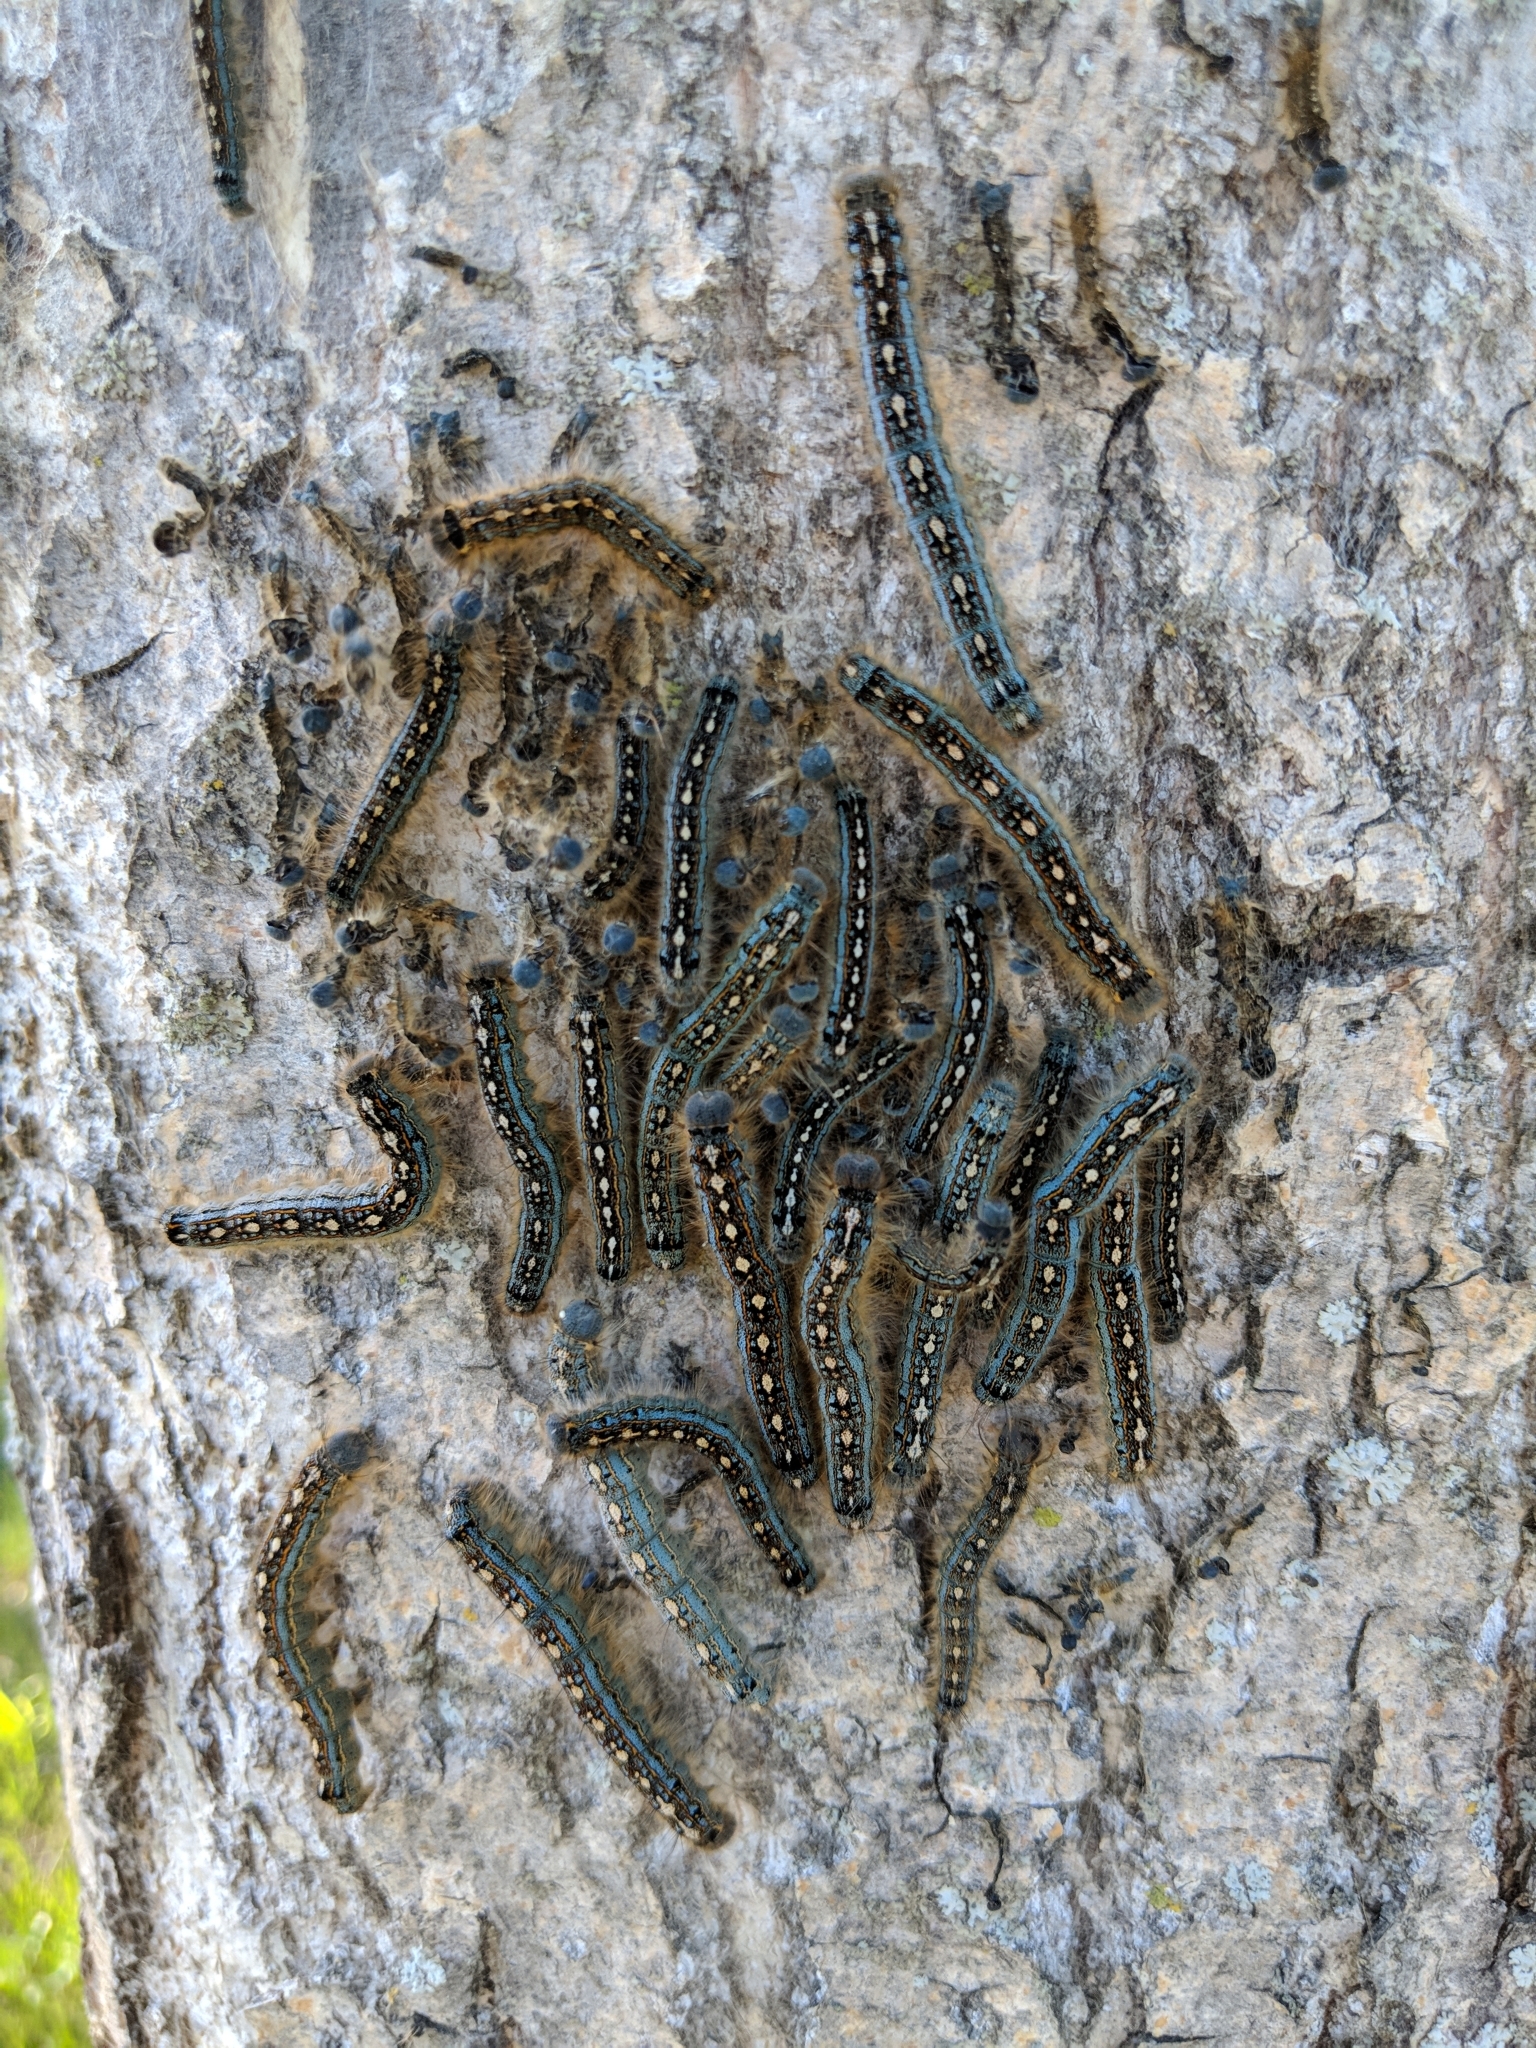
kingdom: Animalia
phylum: Arthropoda
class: Insecta
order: Lepidoptera
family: Lasiocampidae
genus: Malacosoma
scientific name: Malacosoma disstria
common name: Forest tent caterpillar
